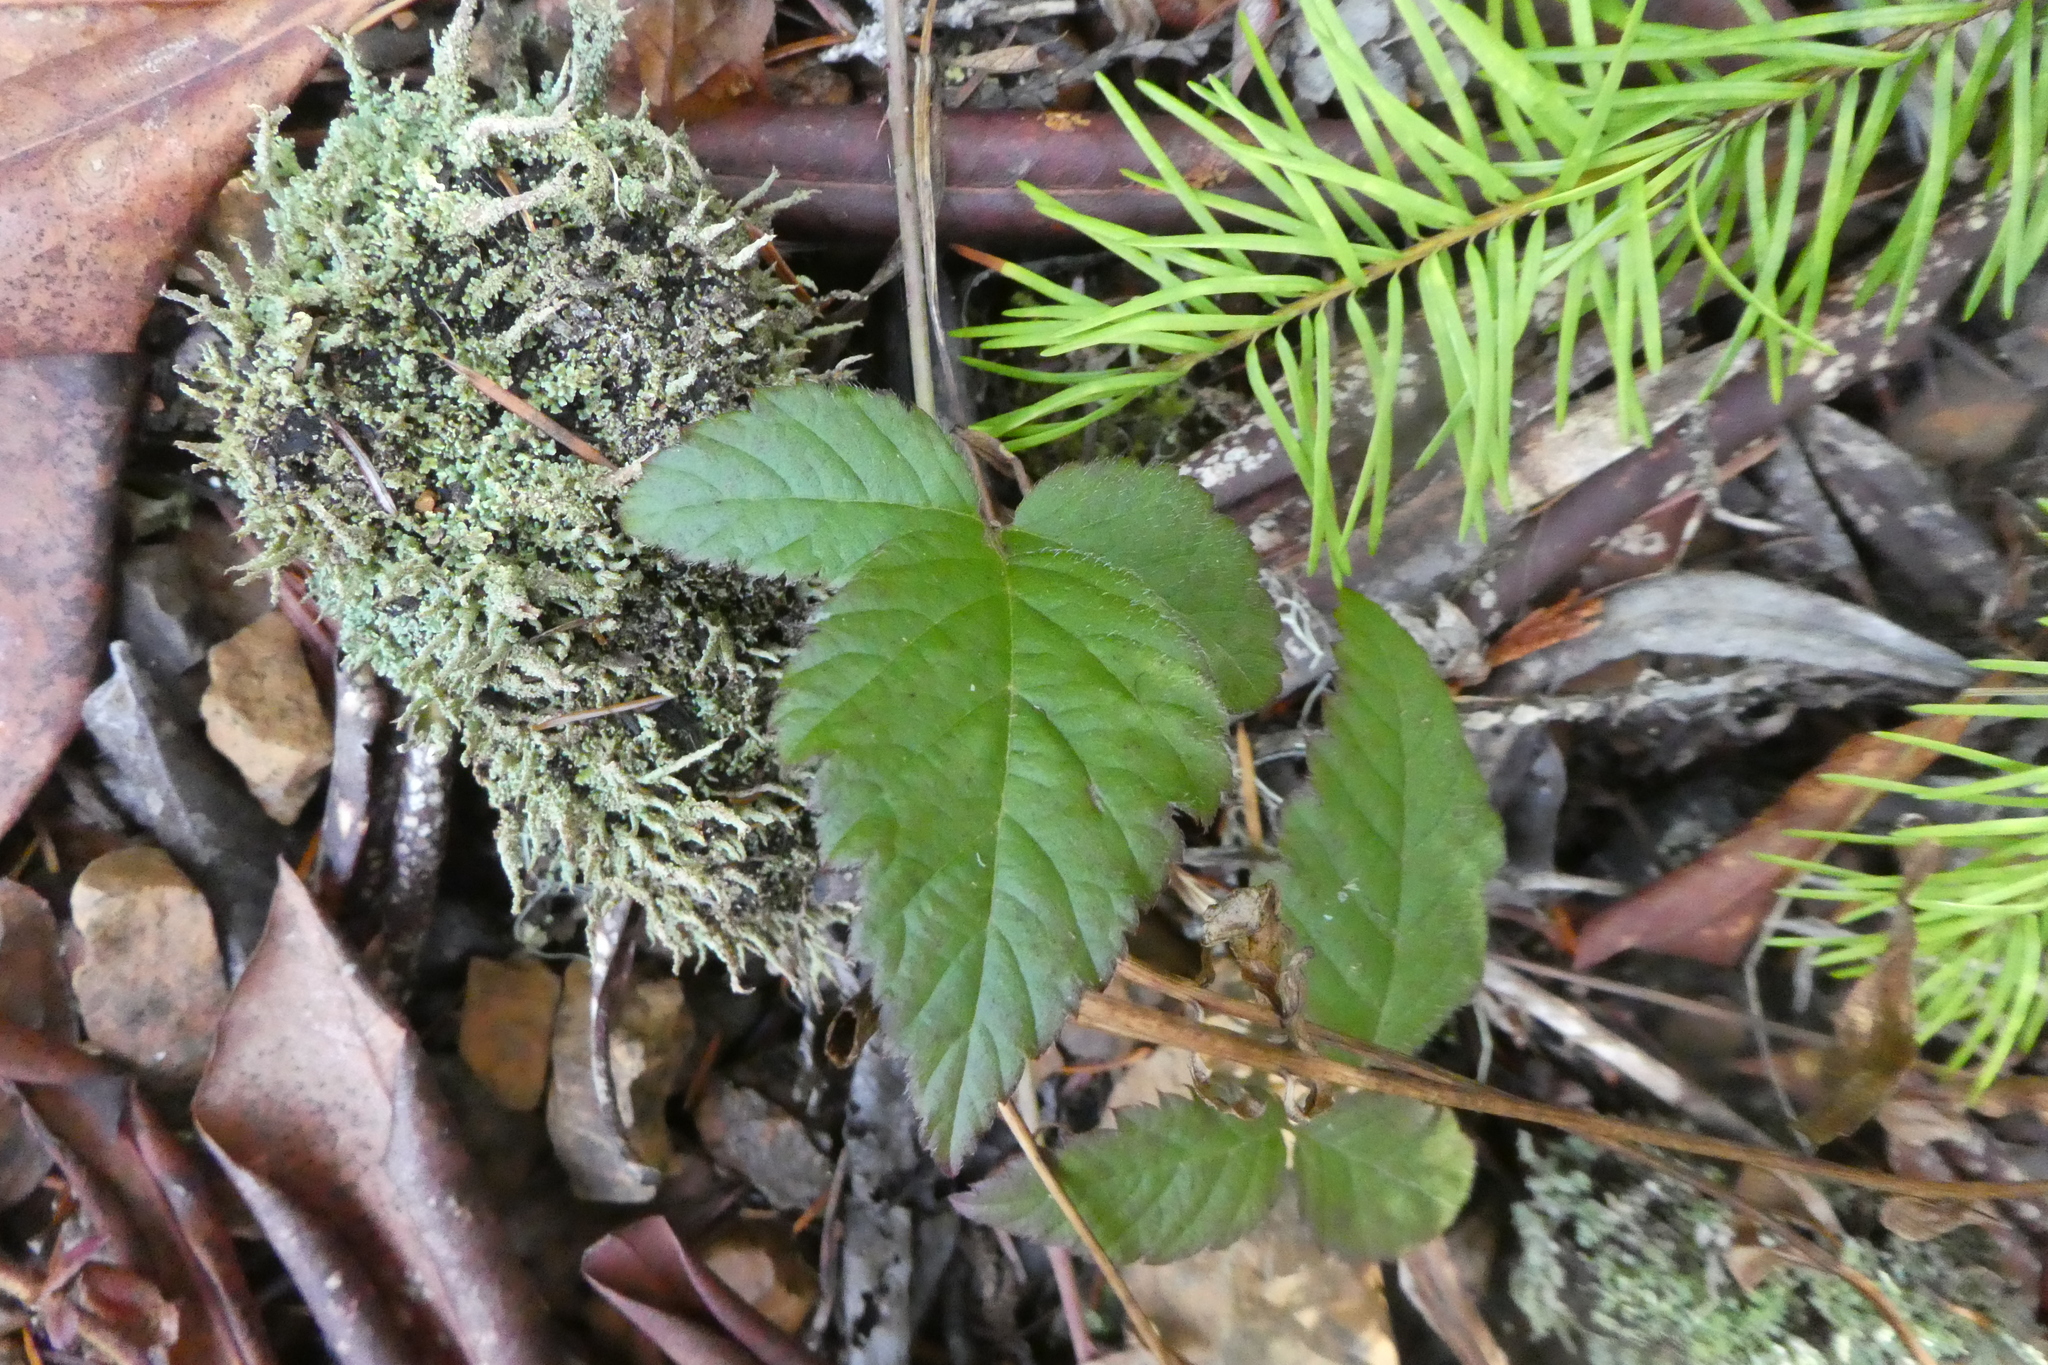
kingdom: Plantae
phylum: Tracheophyta
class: Magnoliopsida
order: Rosales
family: Rosaceae
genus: Rubus
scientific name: Rubus ursinus
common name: Pacific blackberry
